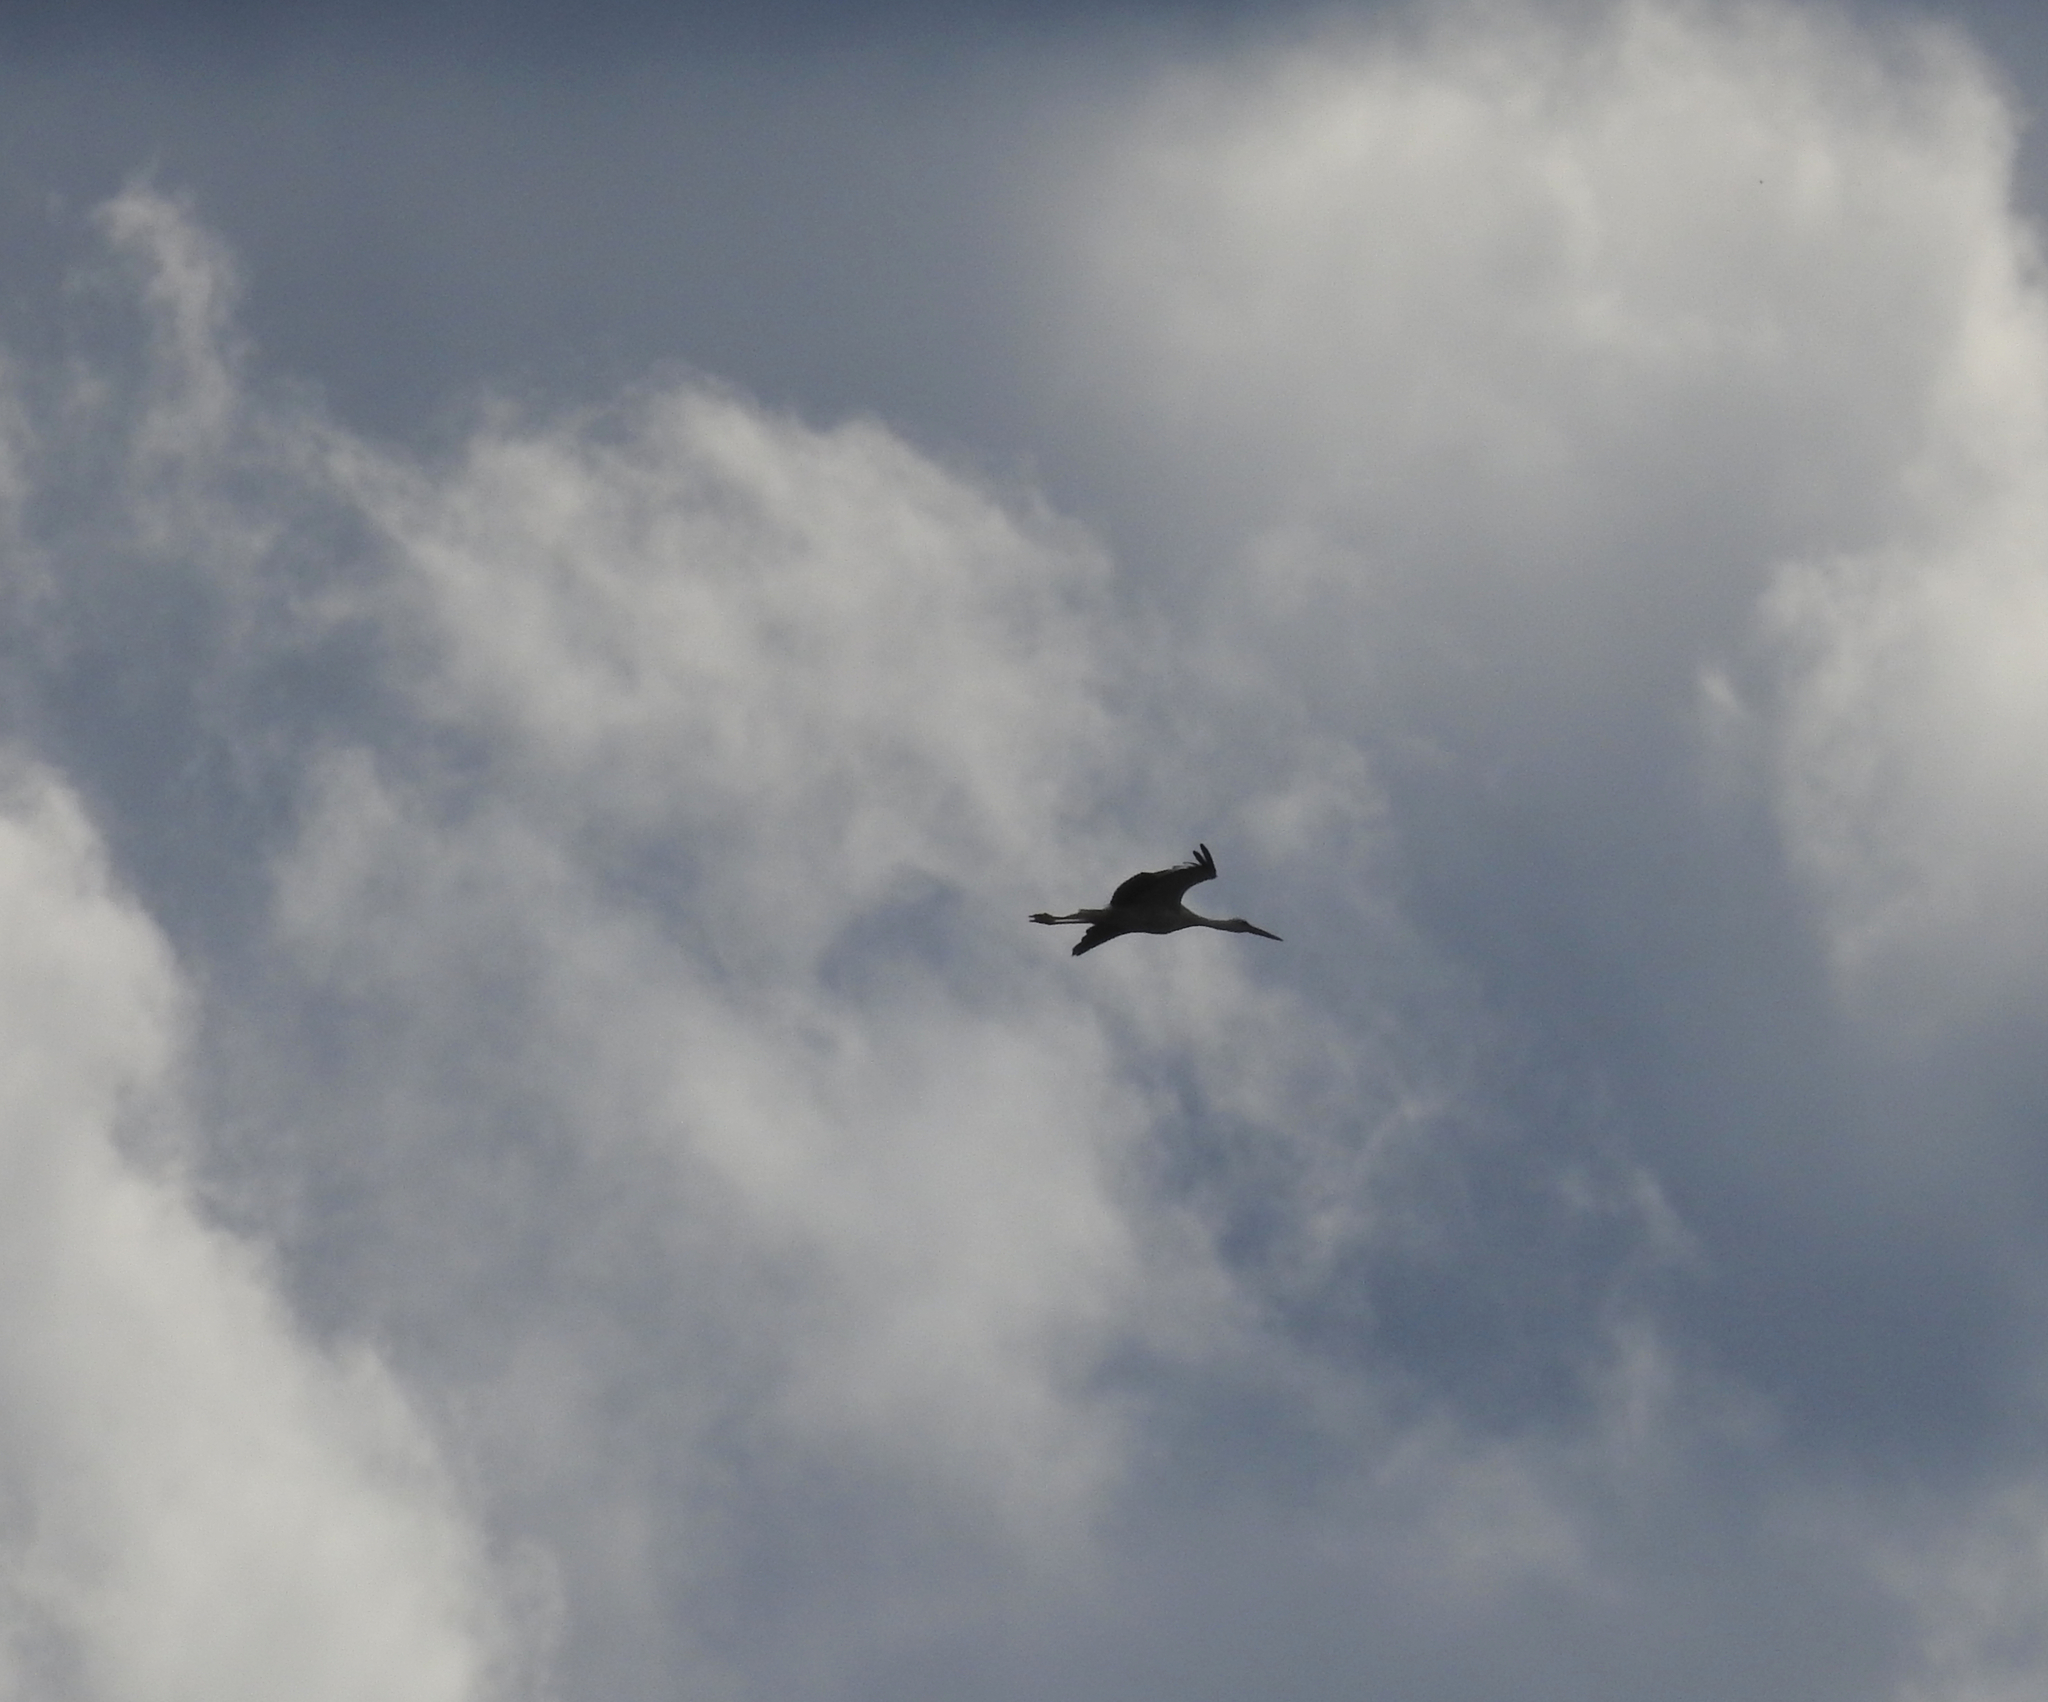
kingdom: Animalia
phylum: Chordata
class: Aves
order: Ciconiiformes
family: Ciconiidae
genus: Ciconia
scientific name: Ciconia ciconia
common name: White stork
